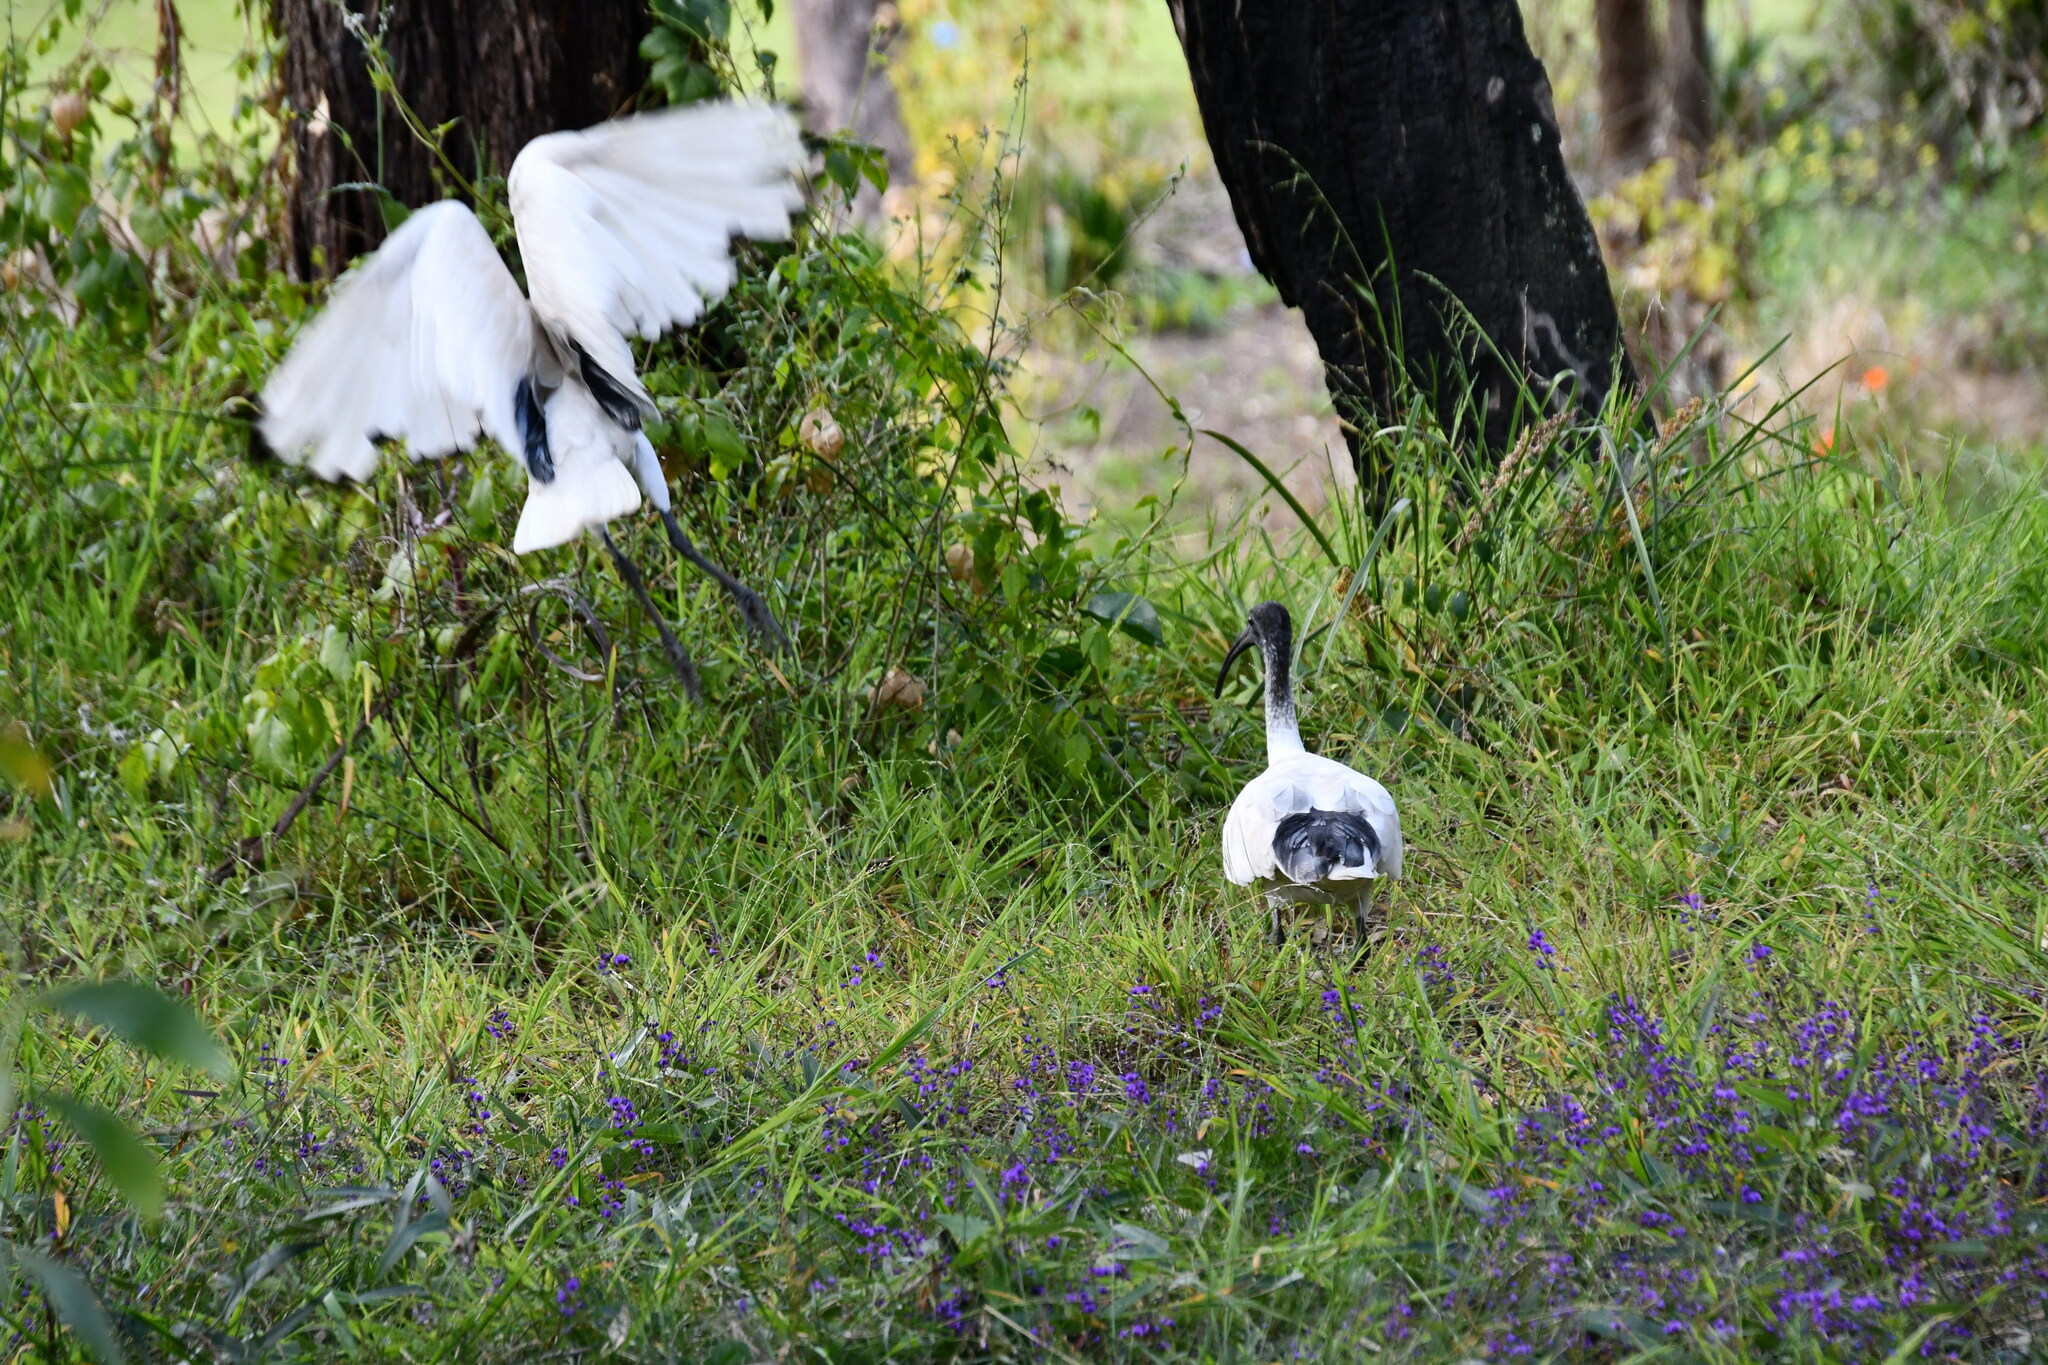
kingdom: Animalia
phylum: Chordata
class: Aves
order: Pelecaniformes
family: Threskiornithidae
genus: Threskiornis
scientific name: Threskiornis molucca
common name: Australian white ibis
